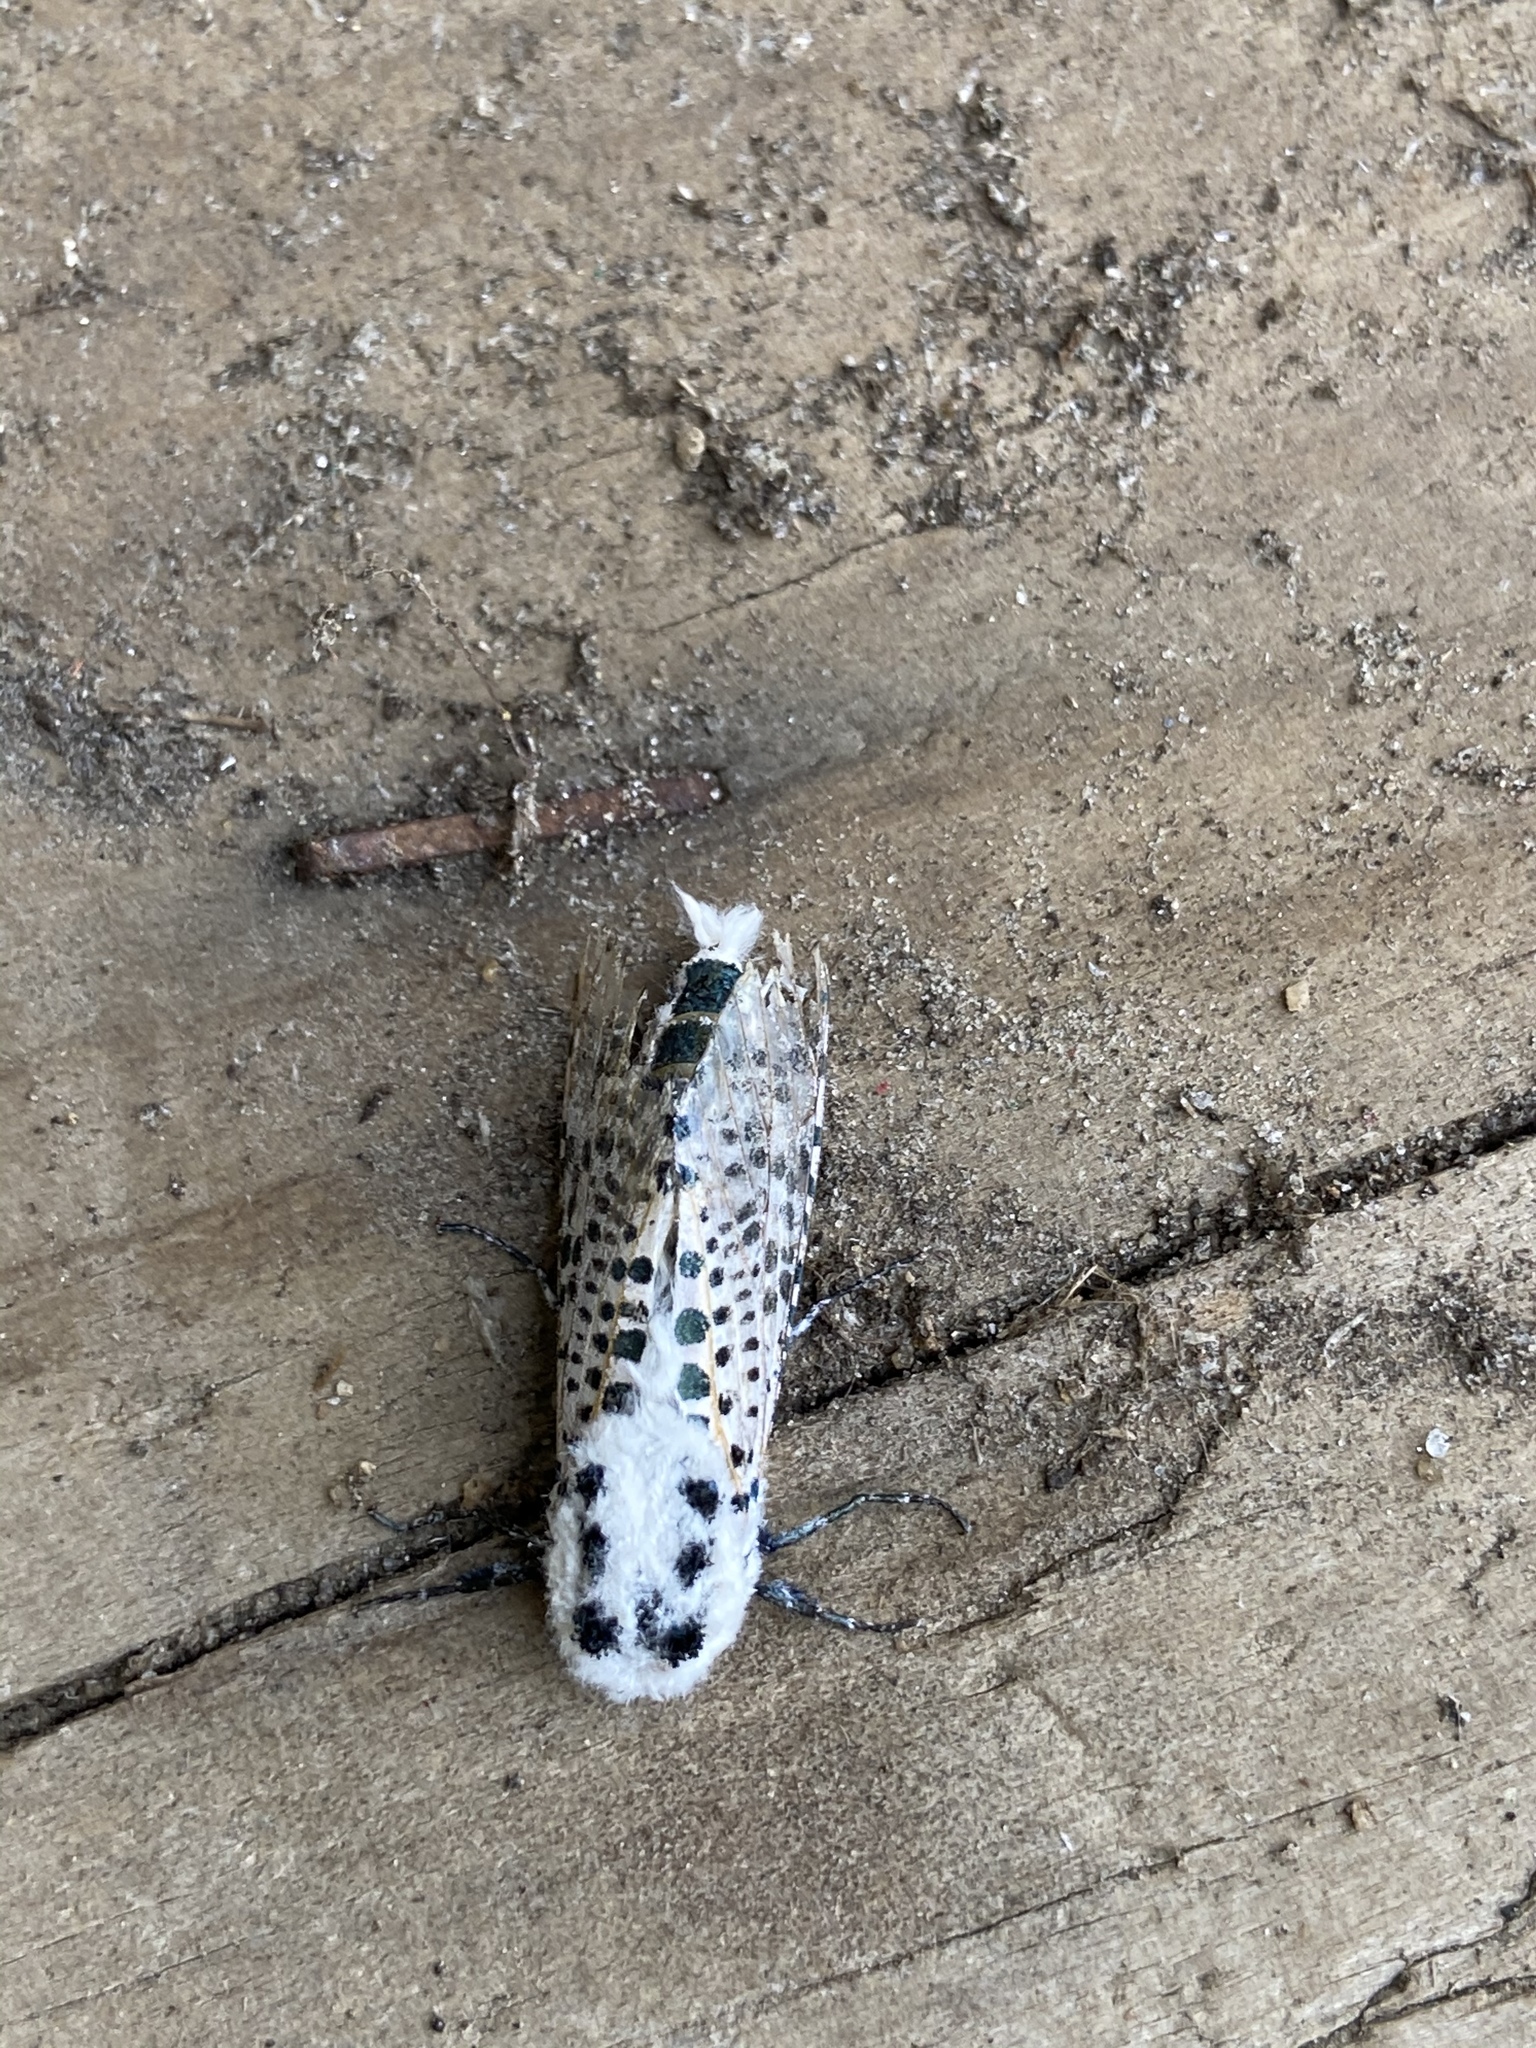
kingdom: Animalia
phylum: Arthropoda
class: Insecta
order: Lepidoptera
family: Cossidae
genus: Zeuzera
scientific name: Zeuzera pyrina
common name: Leopard moth
